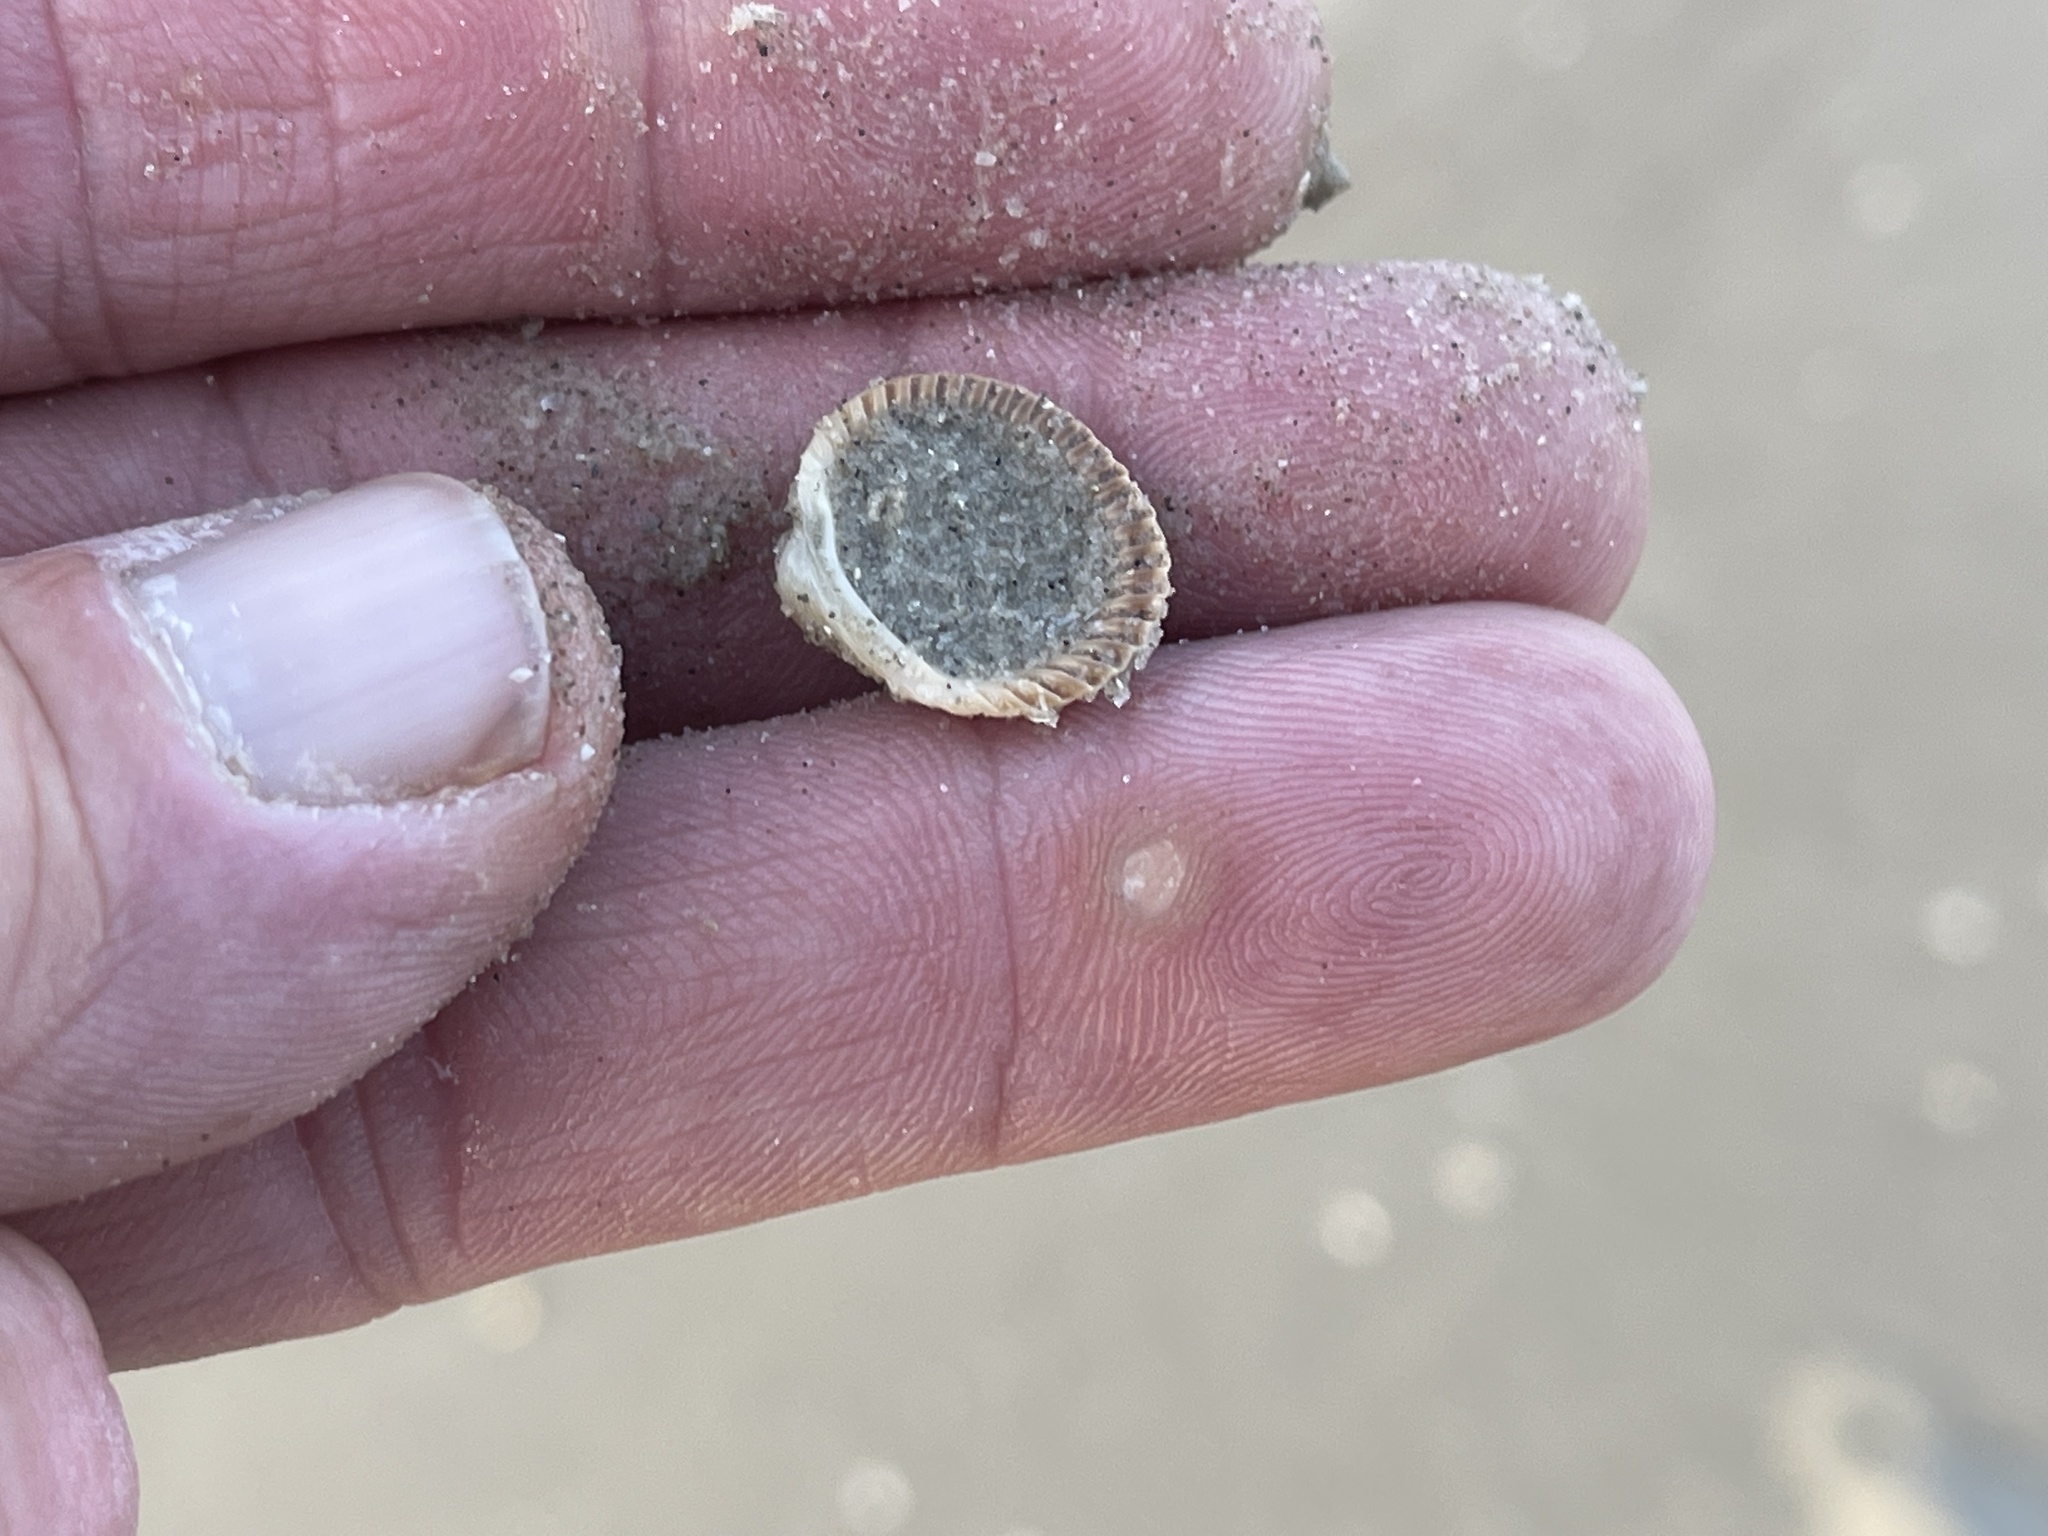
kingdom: Animalia
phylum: Mollusca
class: Bivalvia
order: Arcida
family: Arcidae
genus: Lunarca
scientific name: Lunarca ovalis
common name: Blood ark
